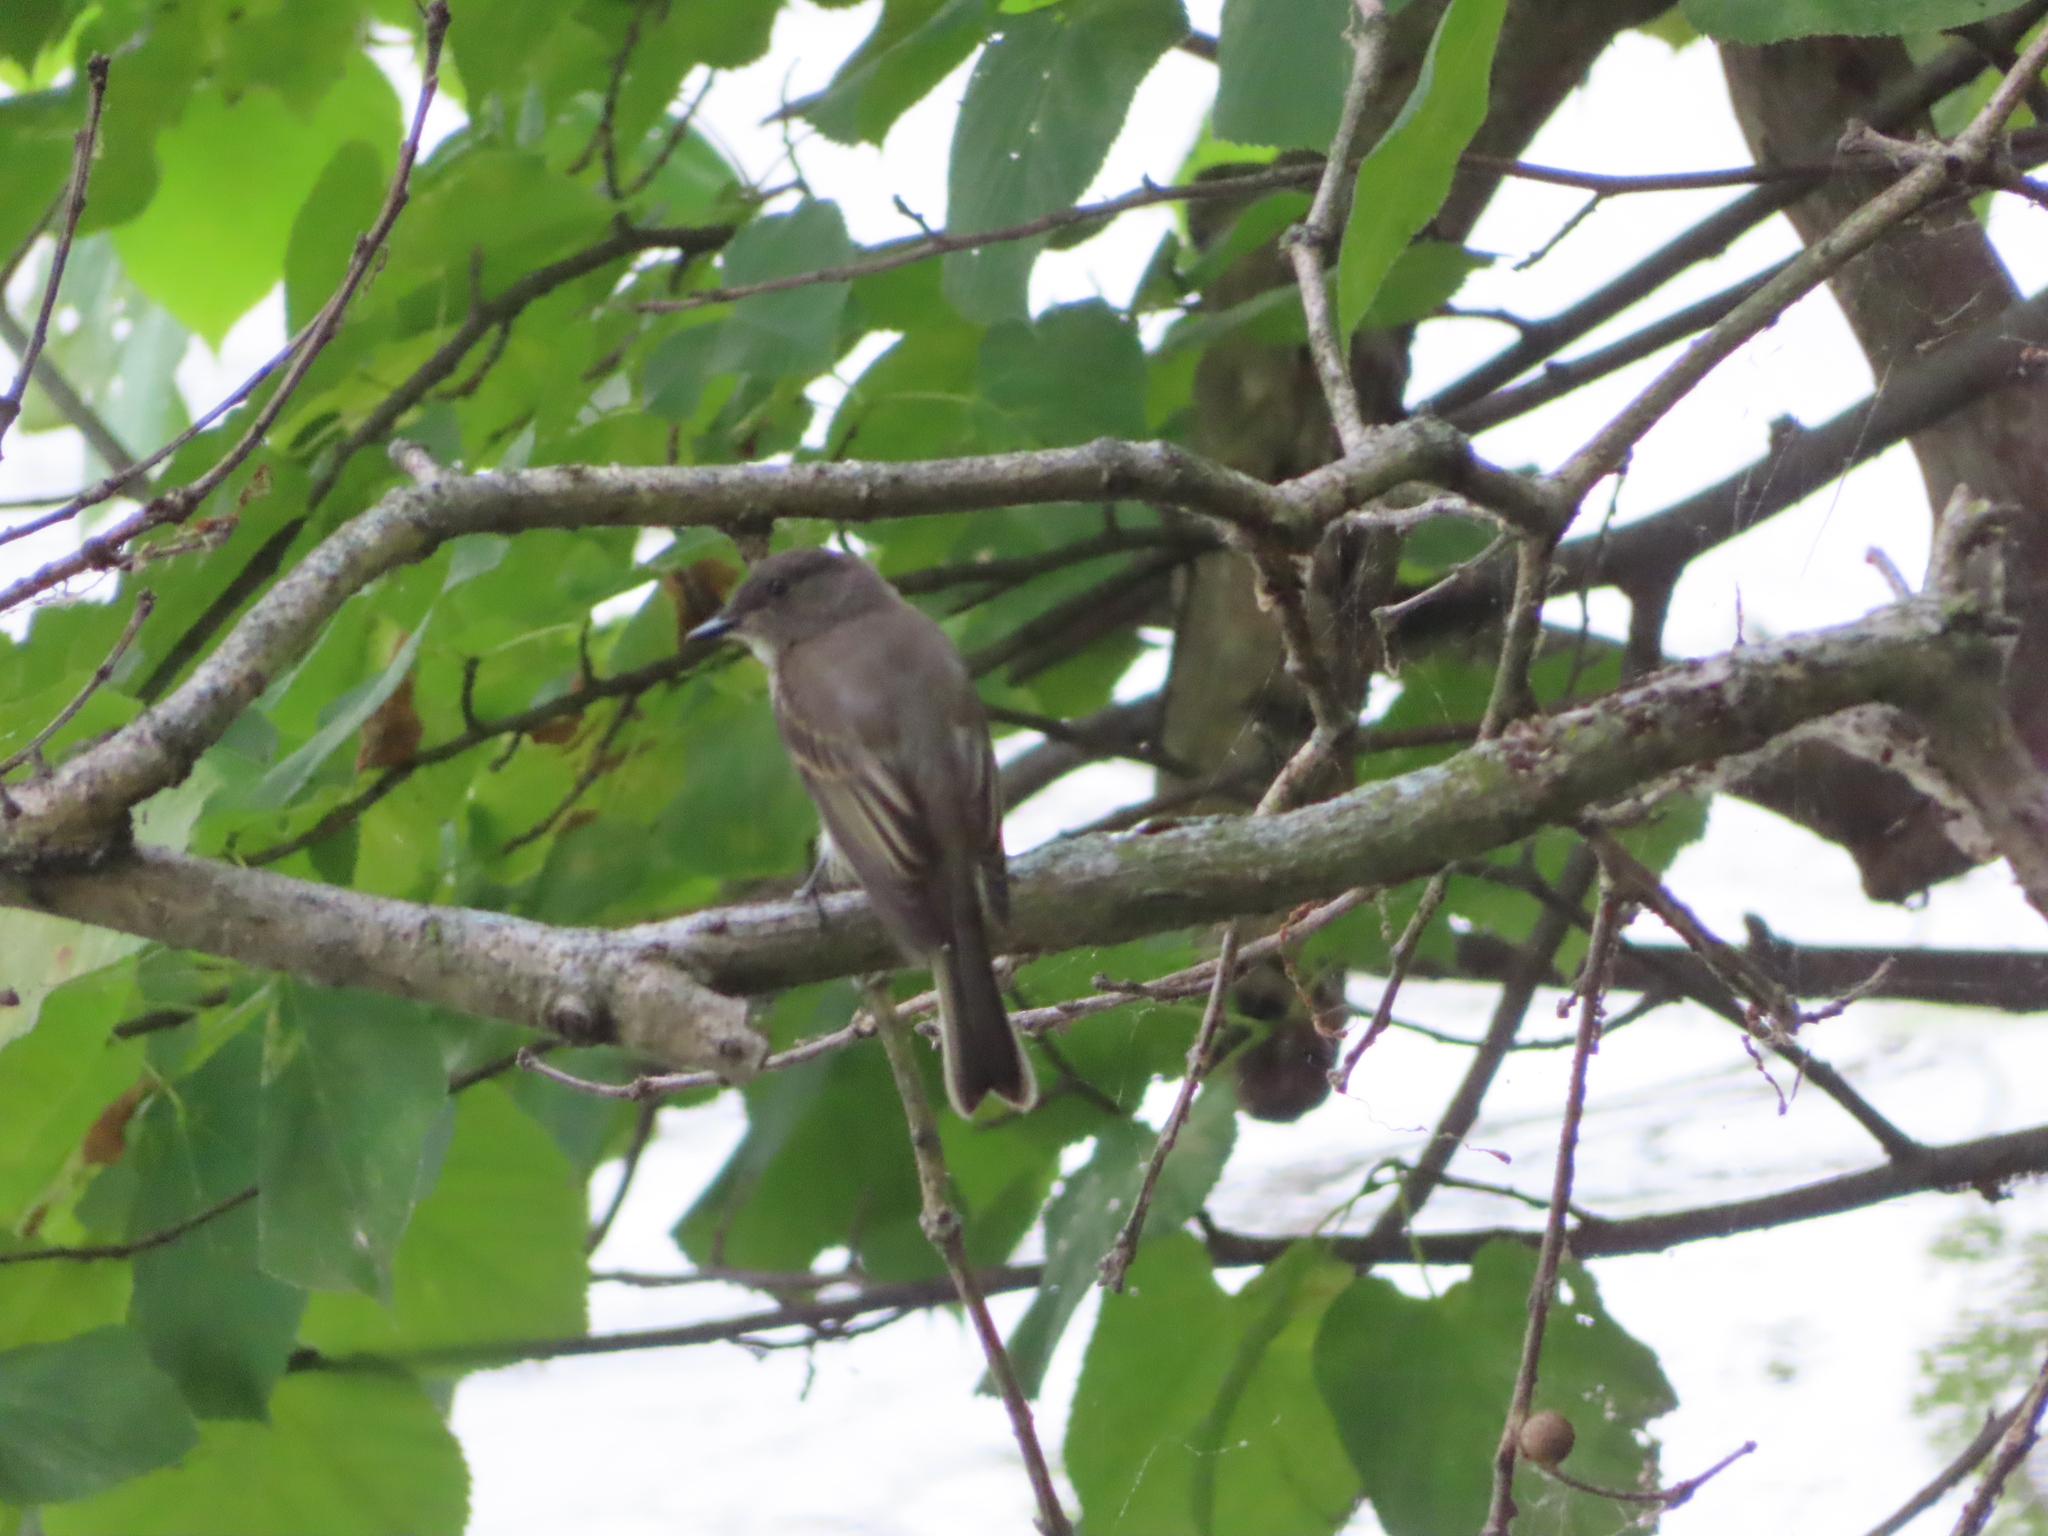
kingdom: Animalia
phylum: Chordata
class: Aves
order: Passeriformes
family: Tyrannidae
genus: Sayornis
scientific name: Sayornis phoebe
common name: Eastern phoebe
